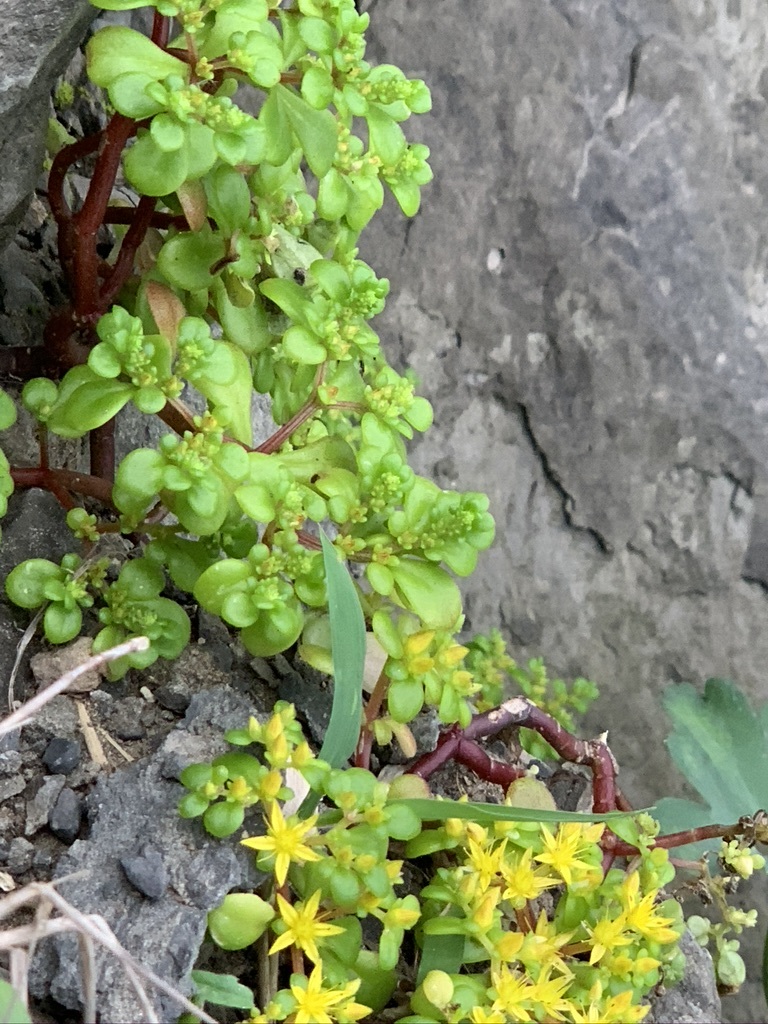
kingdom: Plantae
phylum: Tracheophyta
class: Magnoliopsida
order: Saxifragales
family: Crassulaceae
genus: Sedum
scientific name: Sedum formosanum
